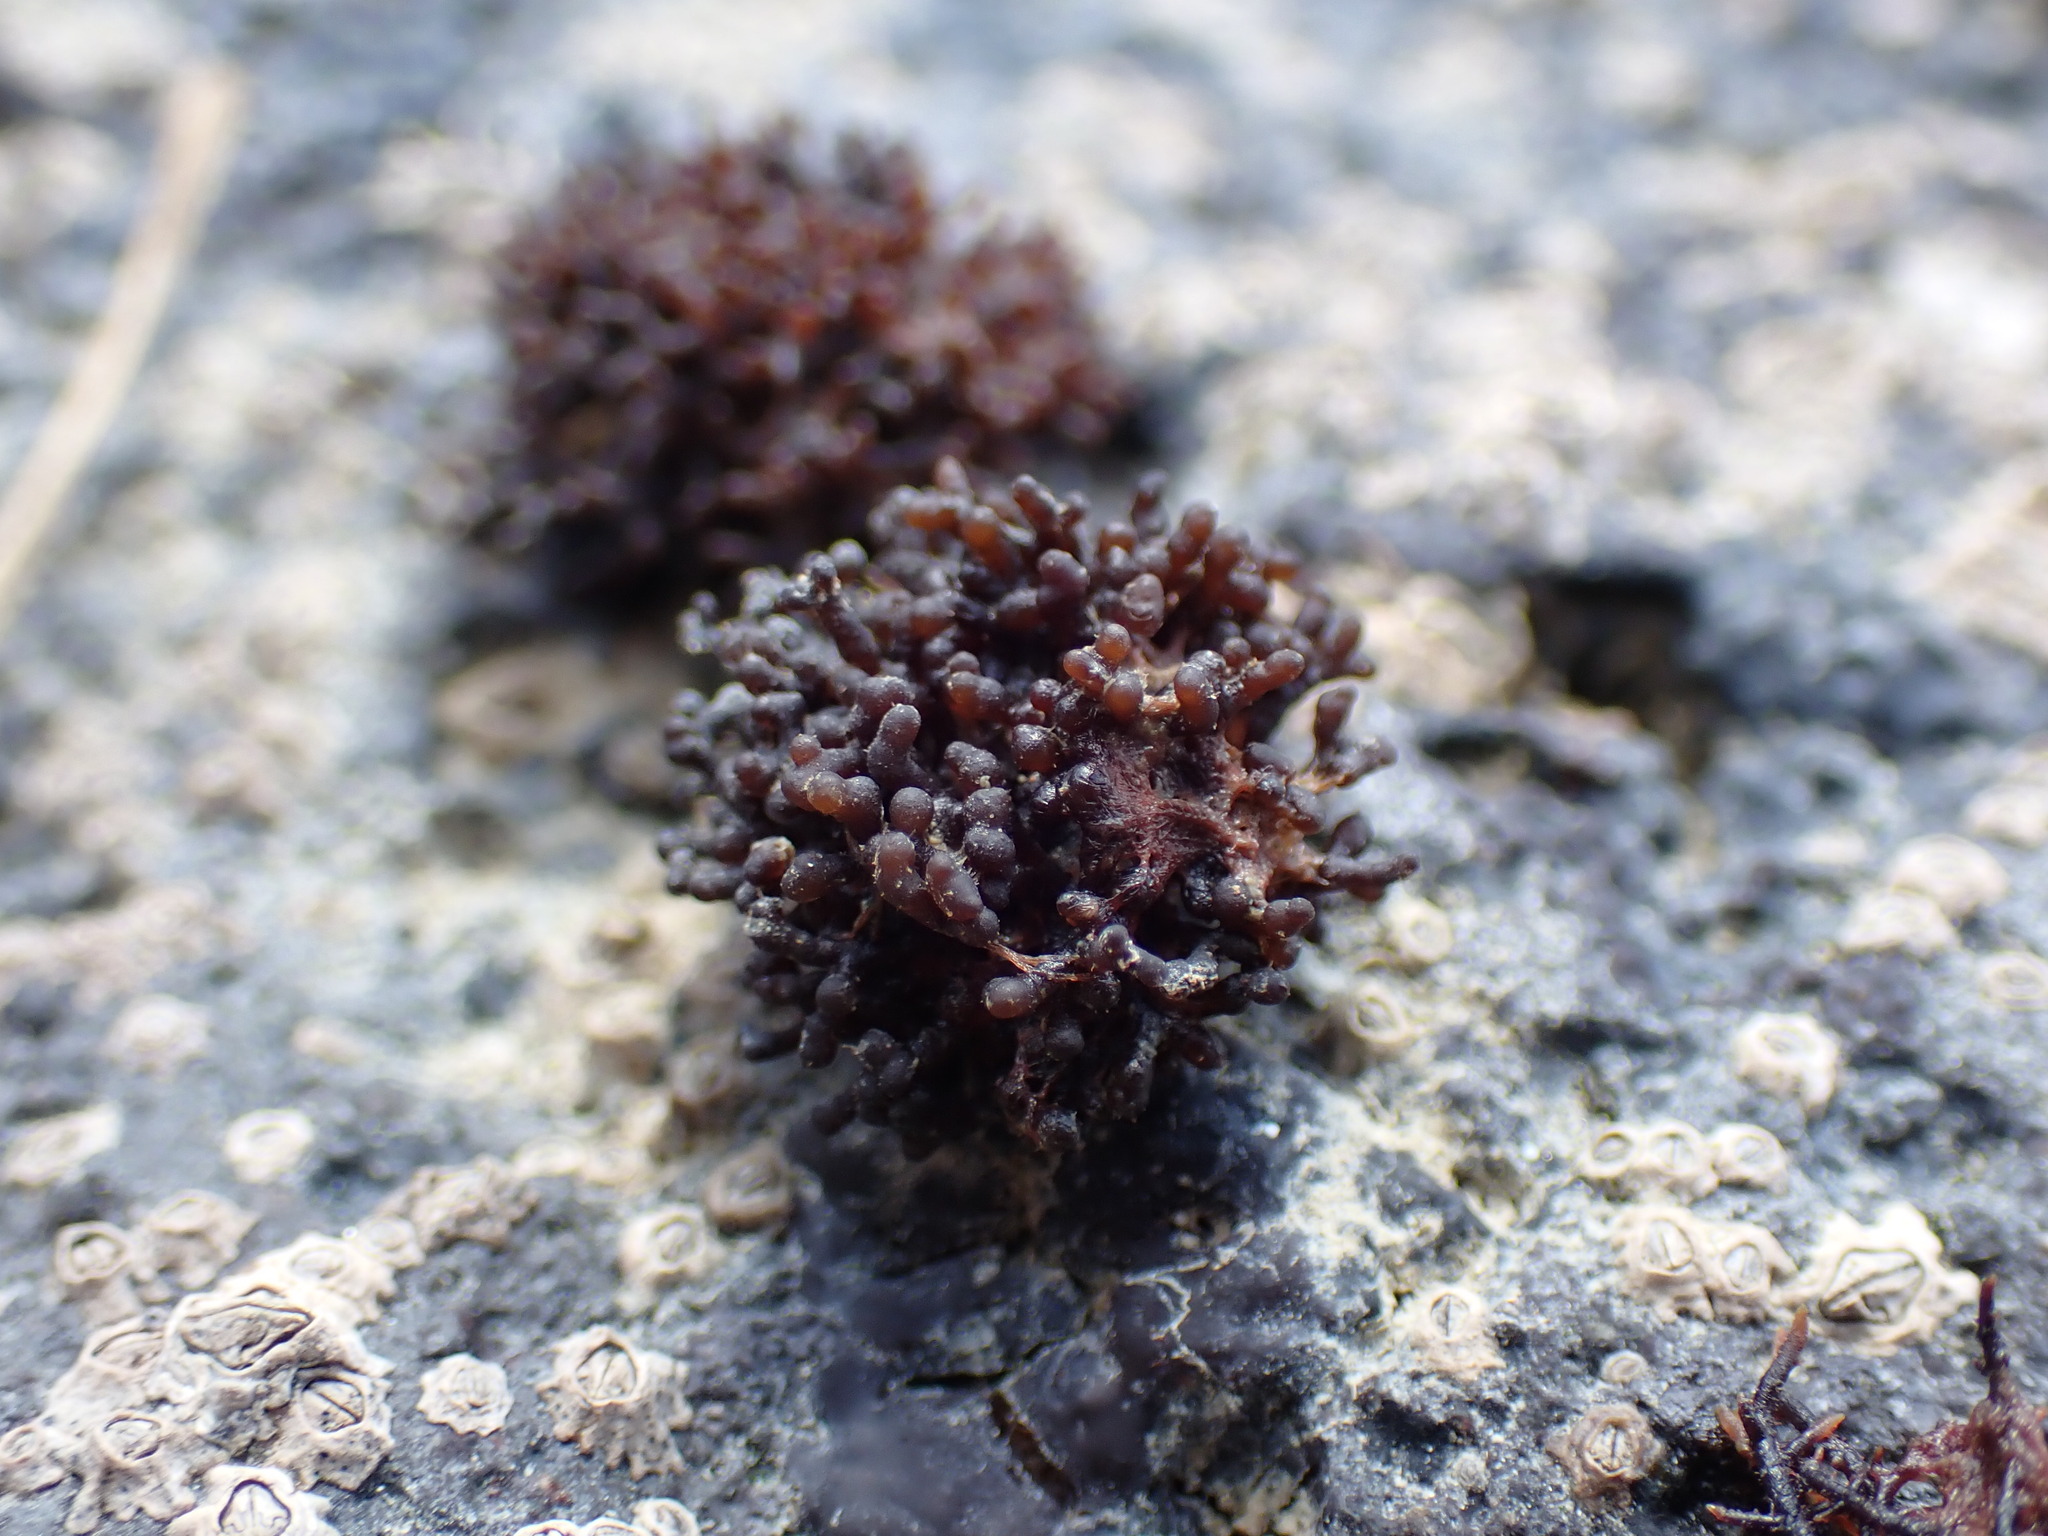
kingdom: Plantae
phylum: Rhodophyta
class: Florideophyceae
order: Hildenbrandiales
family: Hildenbrandiaceae
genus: Apophlaea
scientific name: Apophlaea sinclairii
